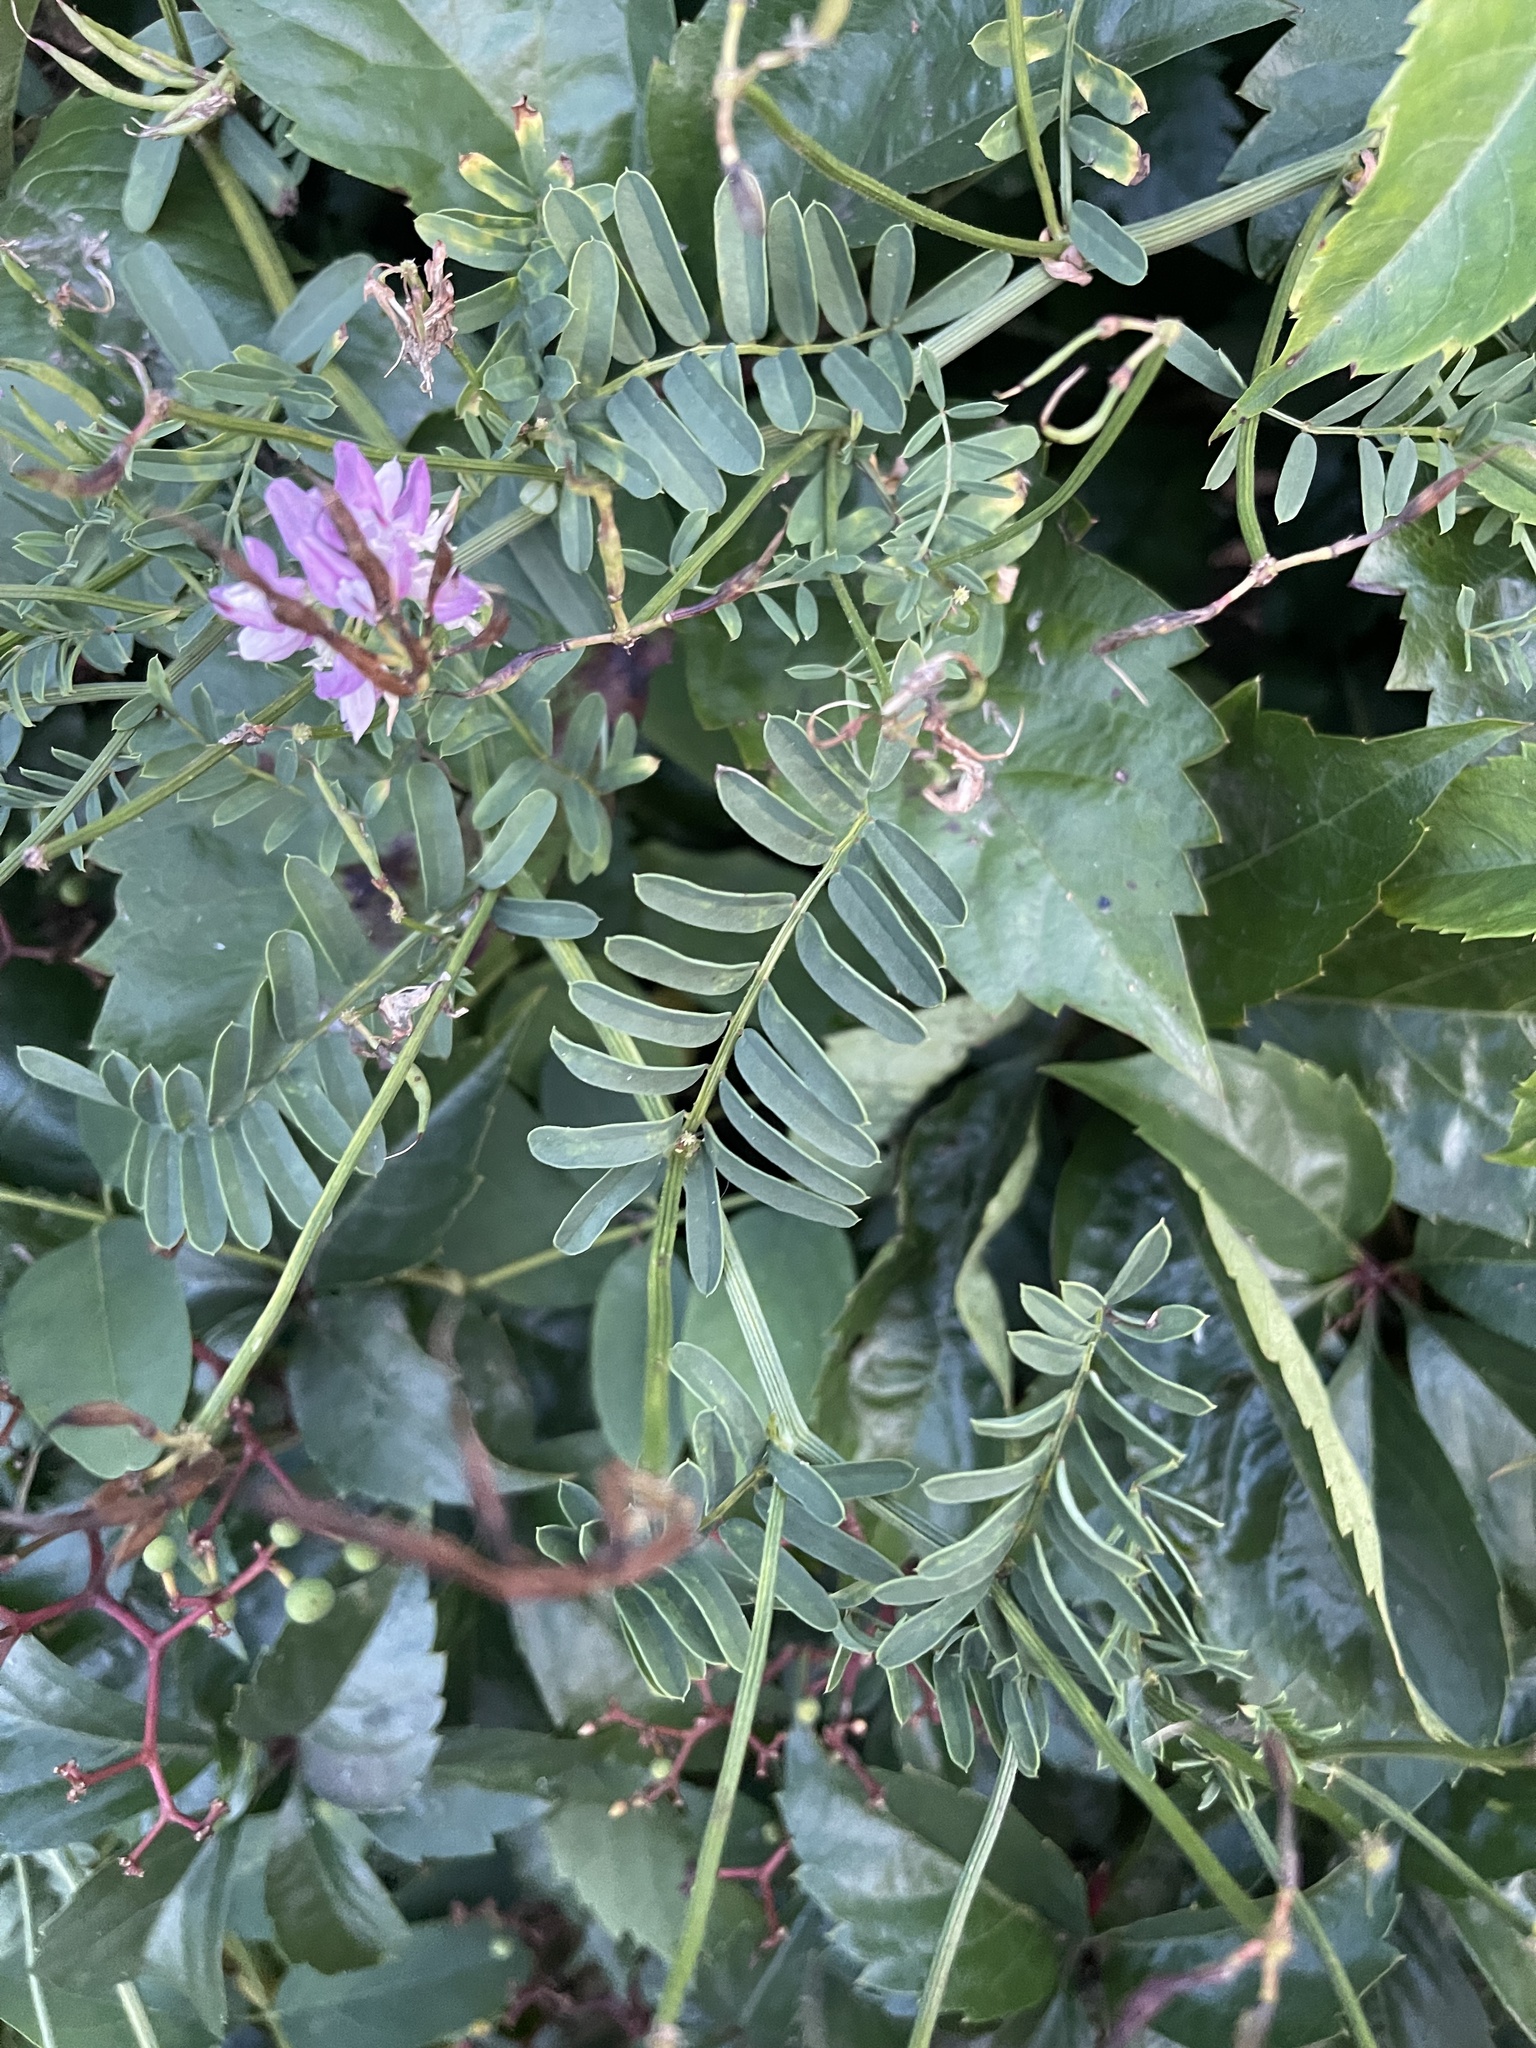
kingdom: Plantae
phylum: Tracheophyta
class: Magnoliopsida
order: Fabales
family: Fabaceae
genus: Coronilla
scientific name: Coronilla varia
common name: Crownvetch
